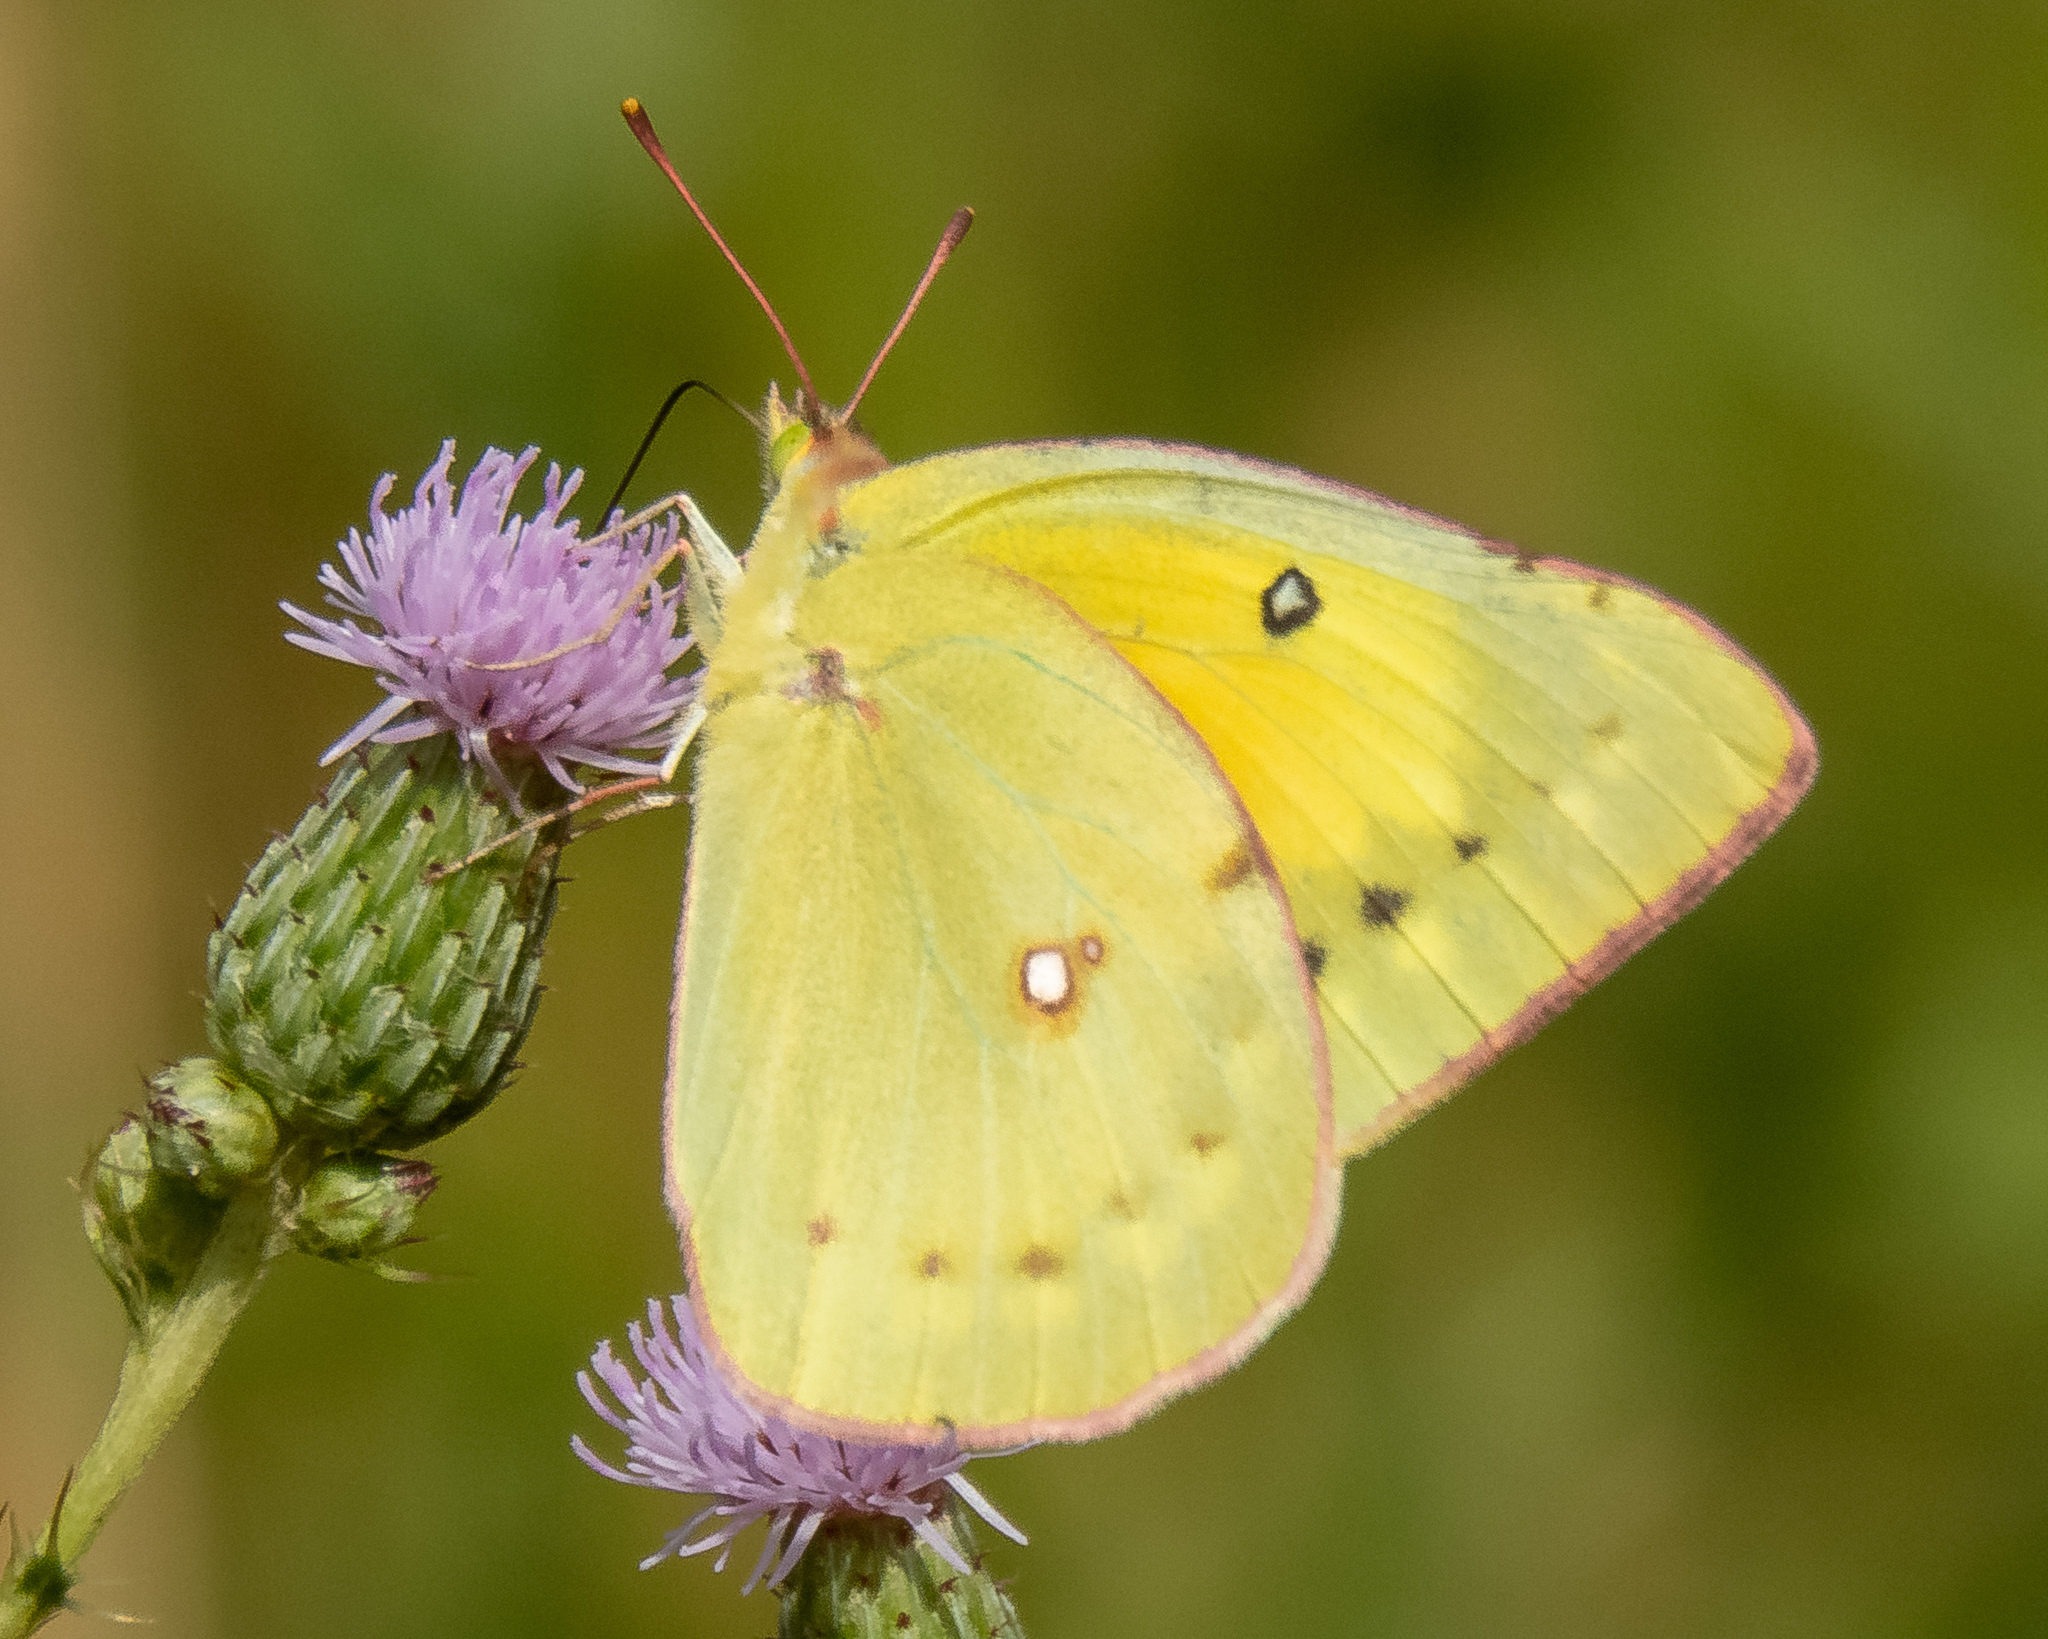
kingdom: Animalia
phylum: Arthropoda
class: Insecta
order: Lepidoptera
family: Pieridae
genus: Colias
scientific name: Colias eurytheme
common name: Alfalfa butterfly
